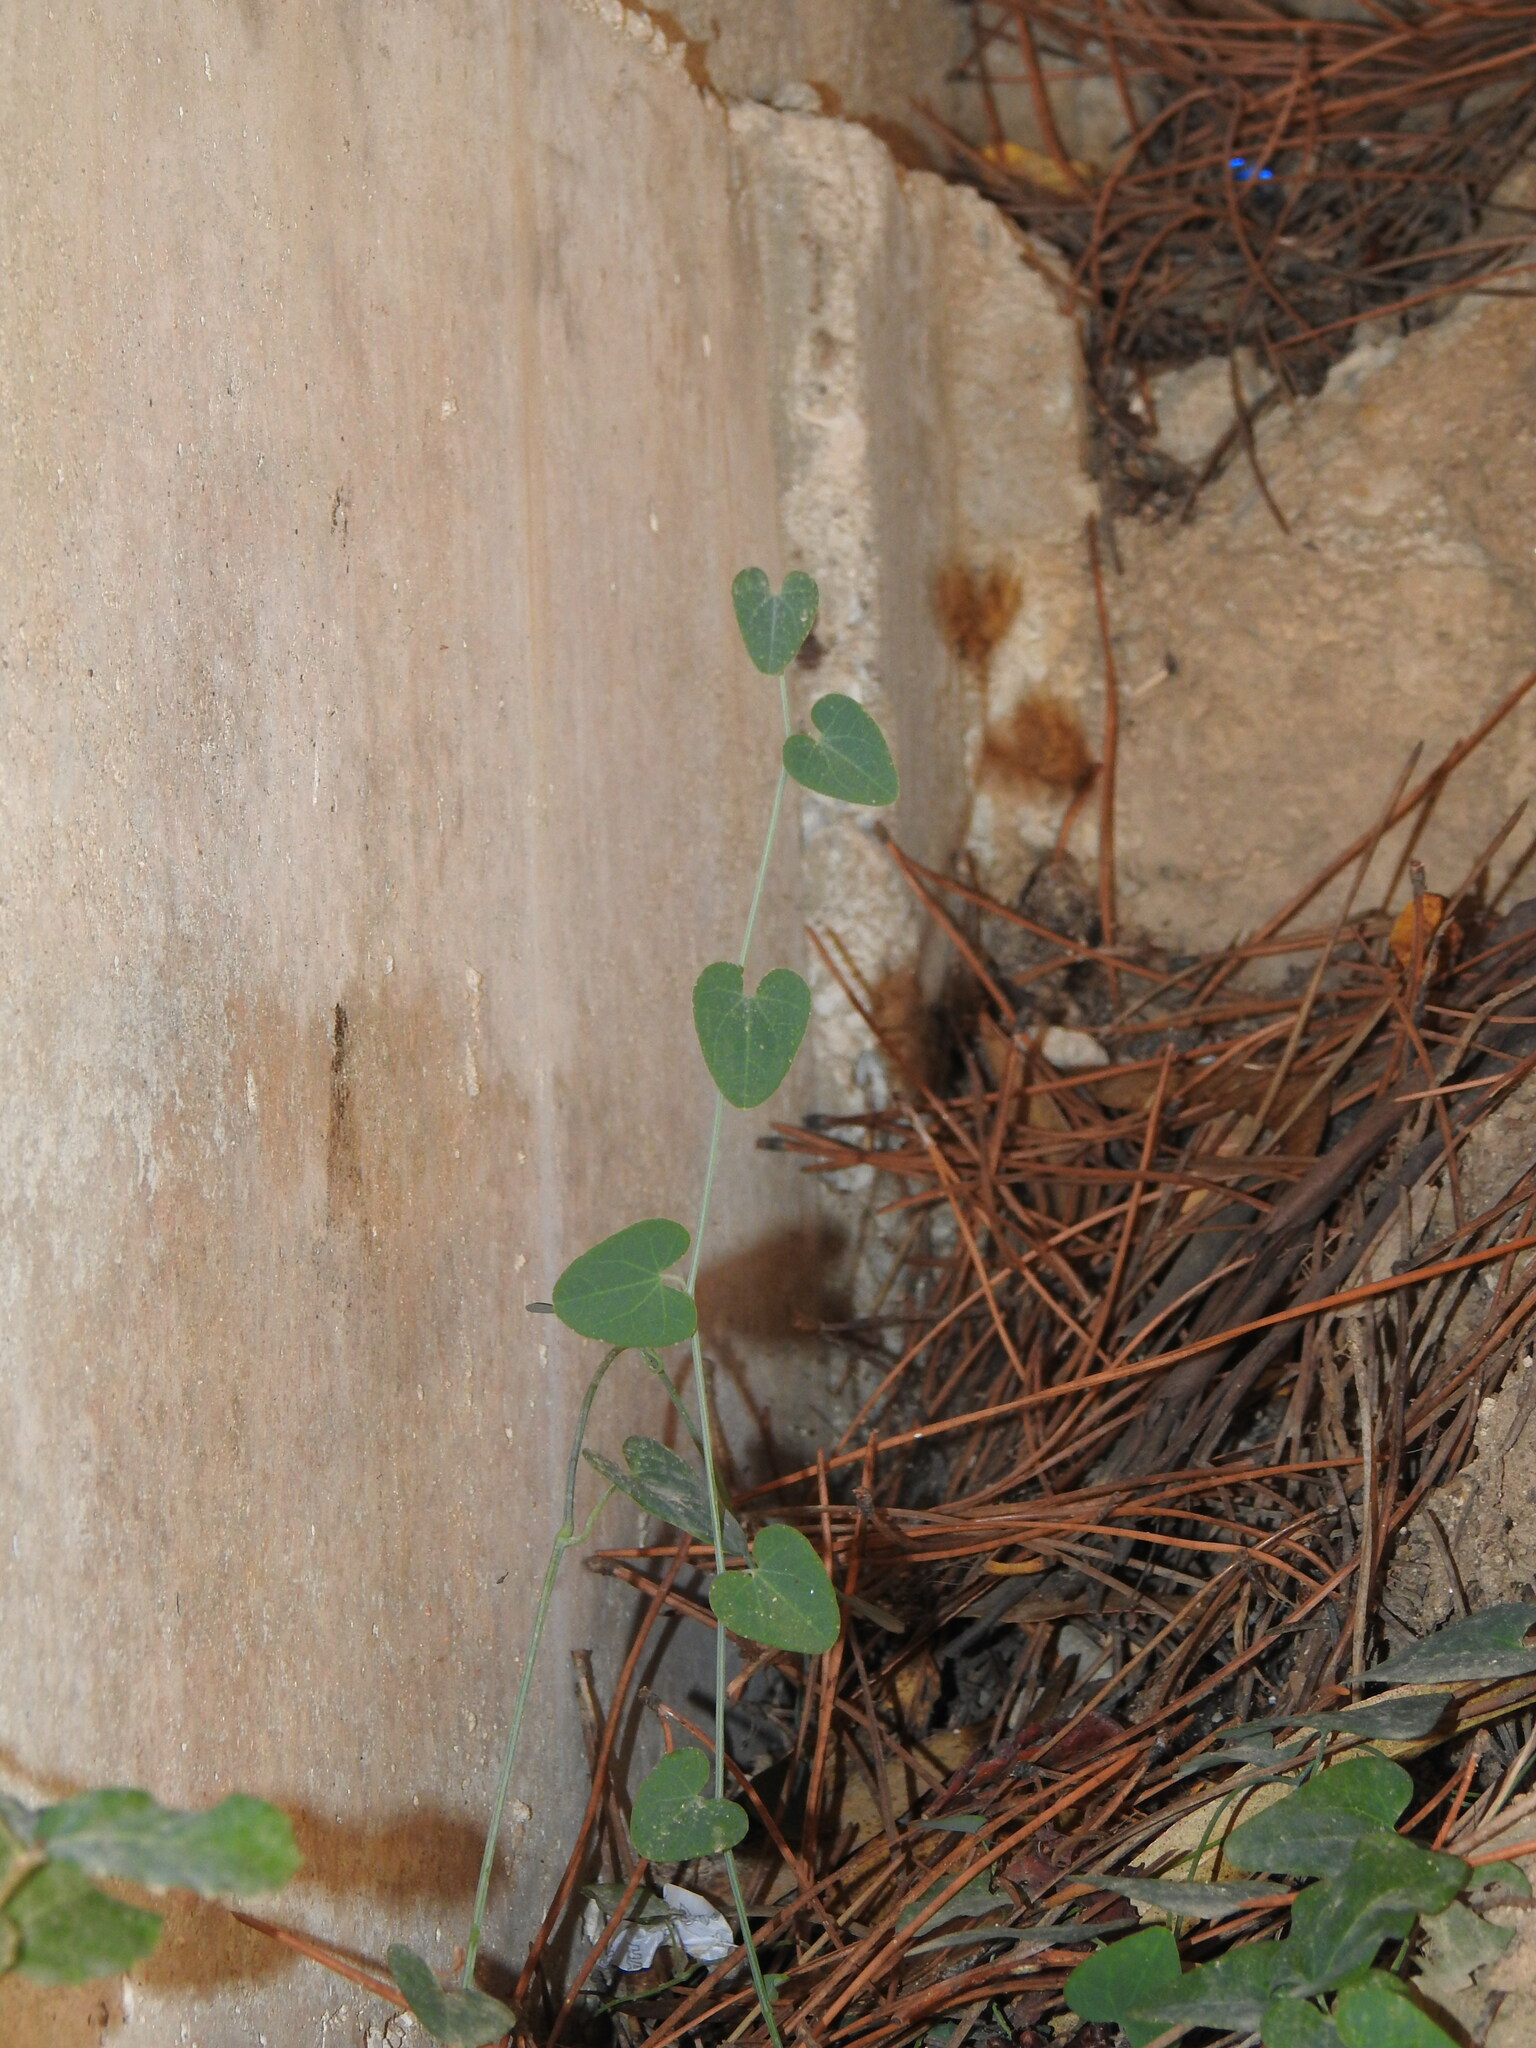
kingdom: Plantae
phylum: Tracheophyta
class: Magnoliopsida
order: Piperales
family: Aristolochiaceae
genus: Aristolochia
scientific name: Aristolochia baetica
